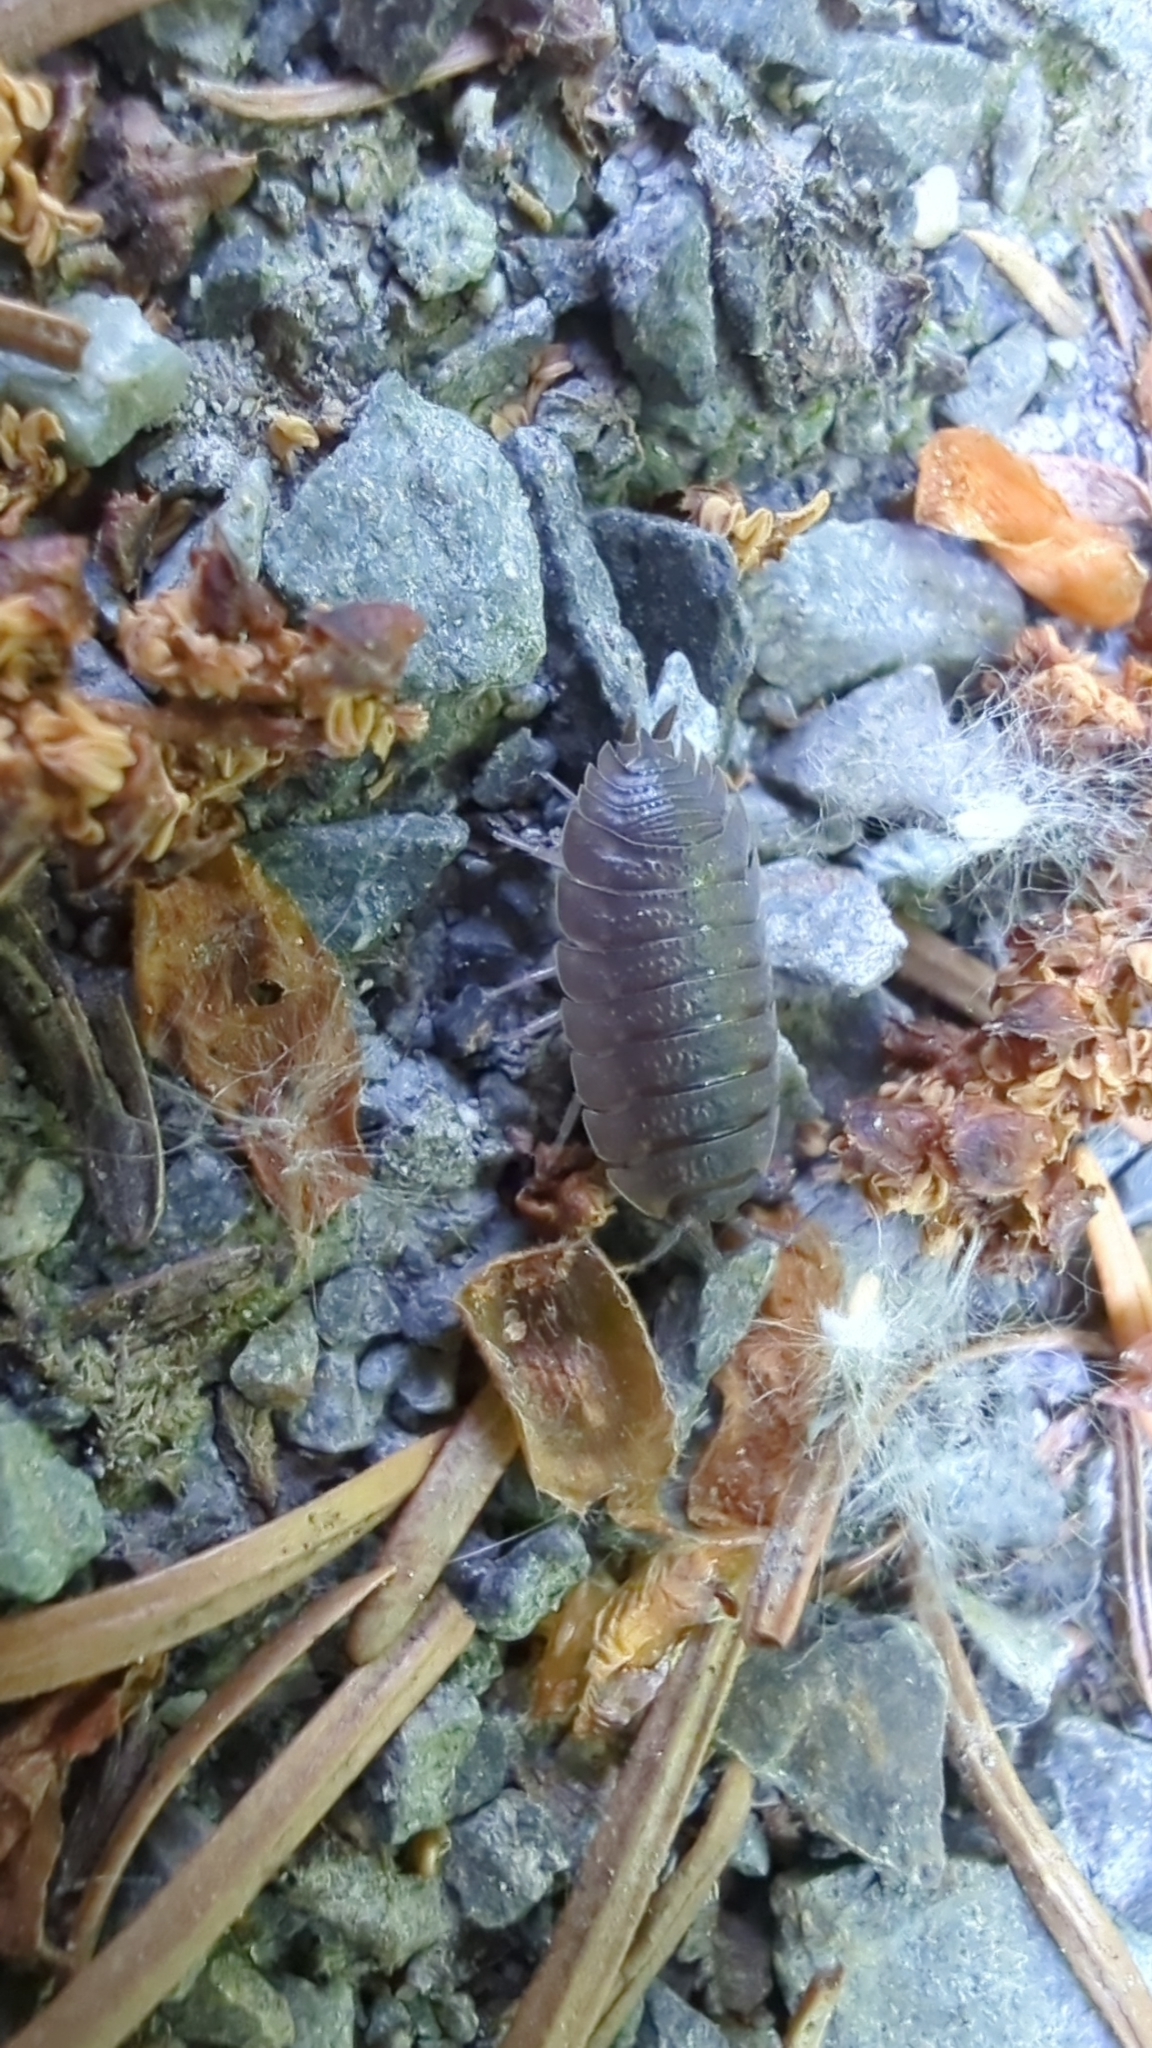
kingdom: Animalia
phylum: Arthropoda
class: Malacostraca
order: Isopoda
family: Porcellionidae
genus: Porcellio
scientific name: Porcellio scaber
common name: Common rough woodlouse
